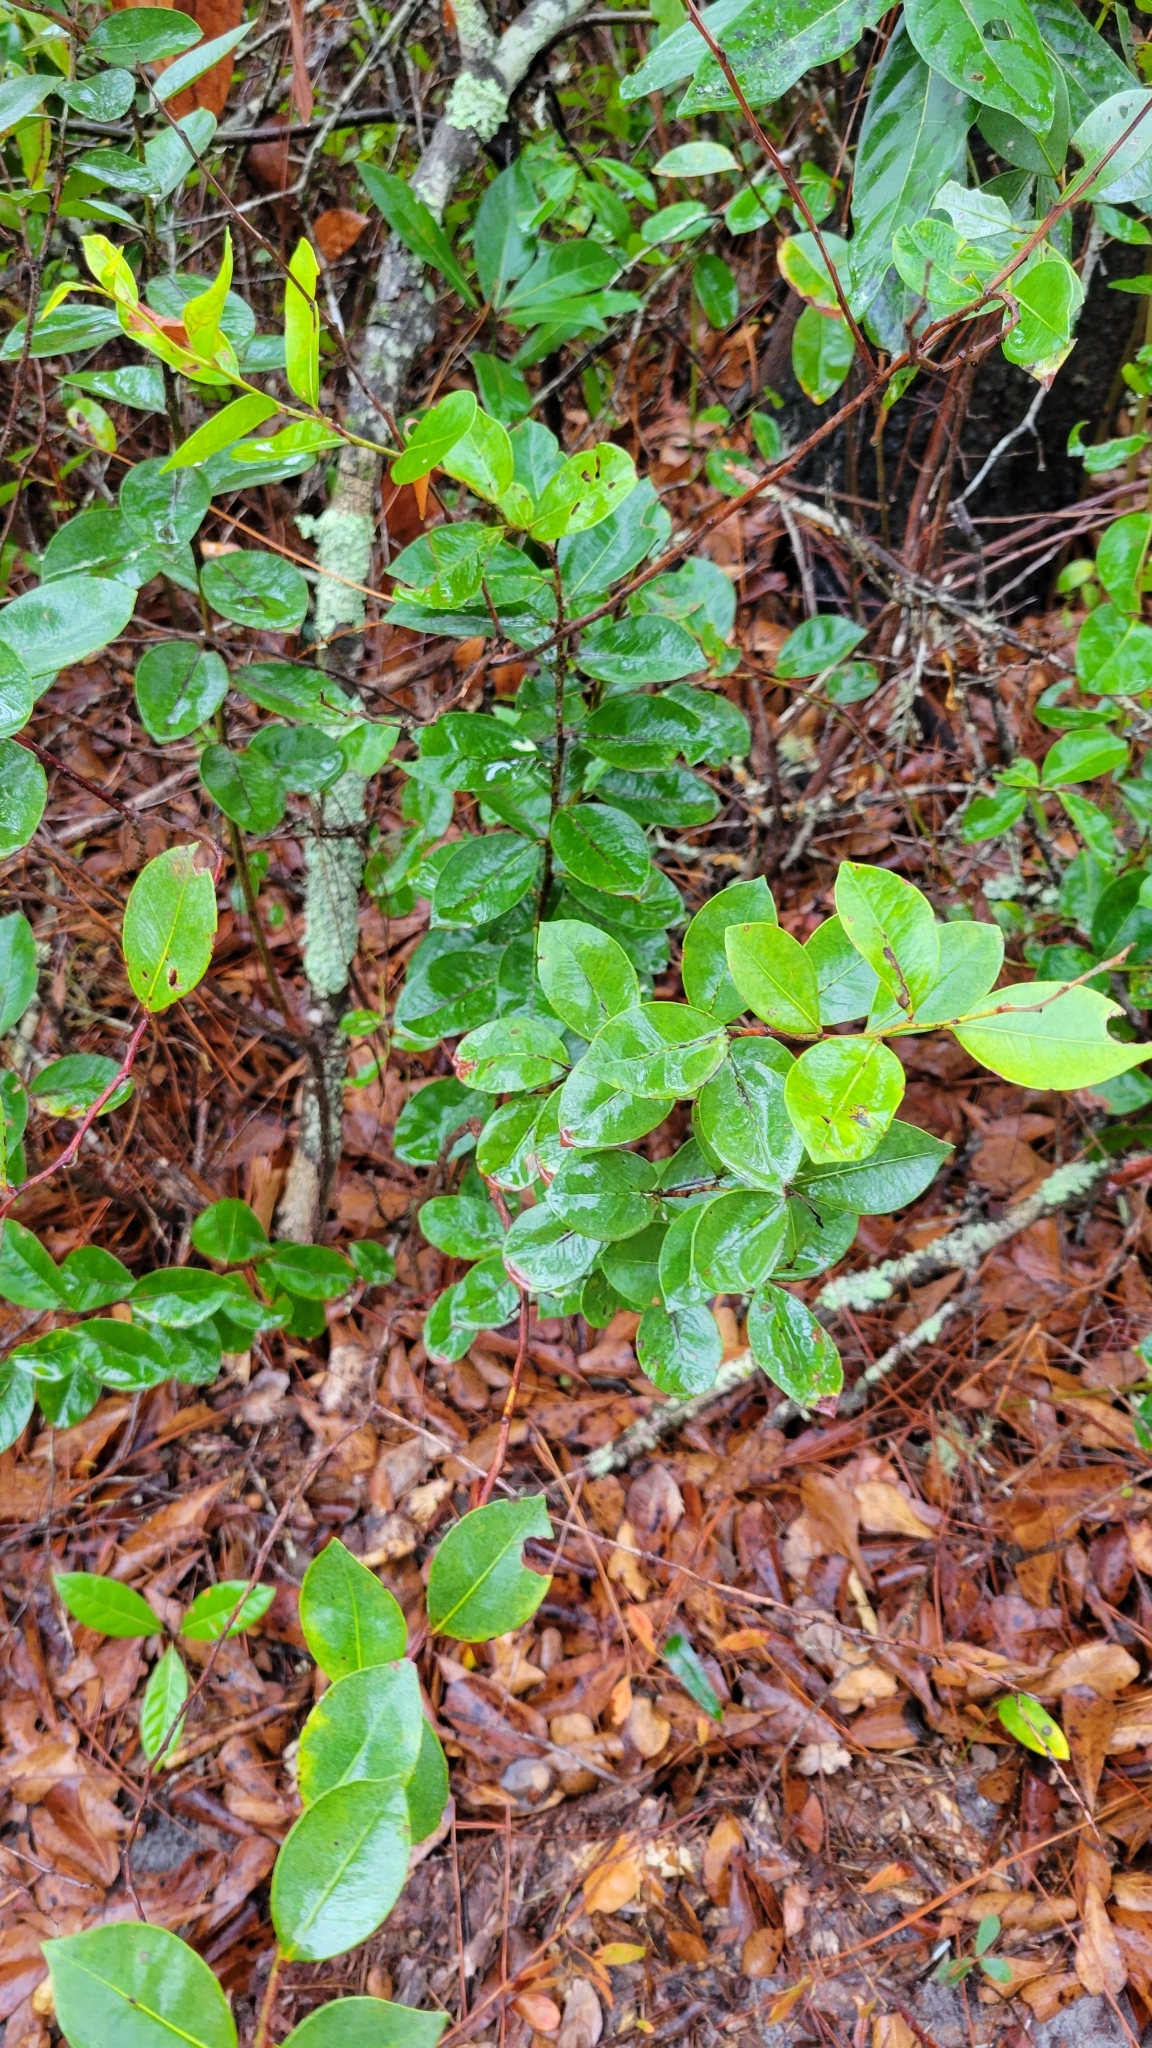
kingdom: Plantae
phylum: Tracheophyta
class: Magnoliopsida
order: Ericales
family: Ericaceae
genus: Lyonia
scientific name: Lyonia lucida
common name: Fetterbush
